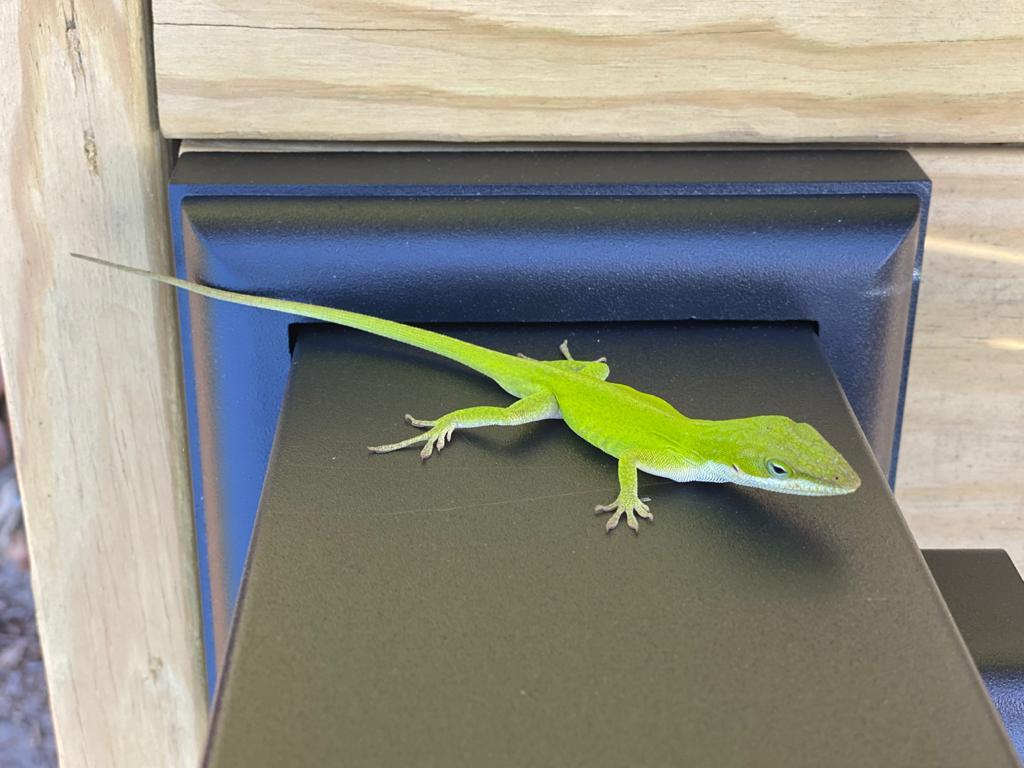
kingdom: Animalia
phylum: Chordata
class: Squamata
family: Dactyloidae
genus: Anolis
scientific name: Anolis carolinensis
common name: Green anole
